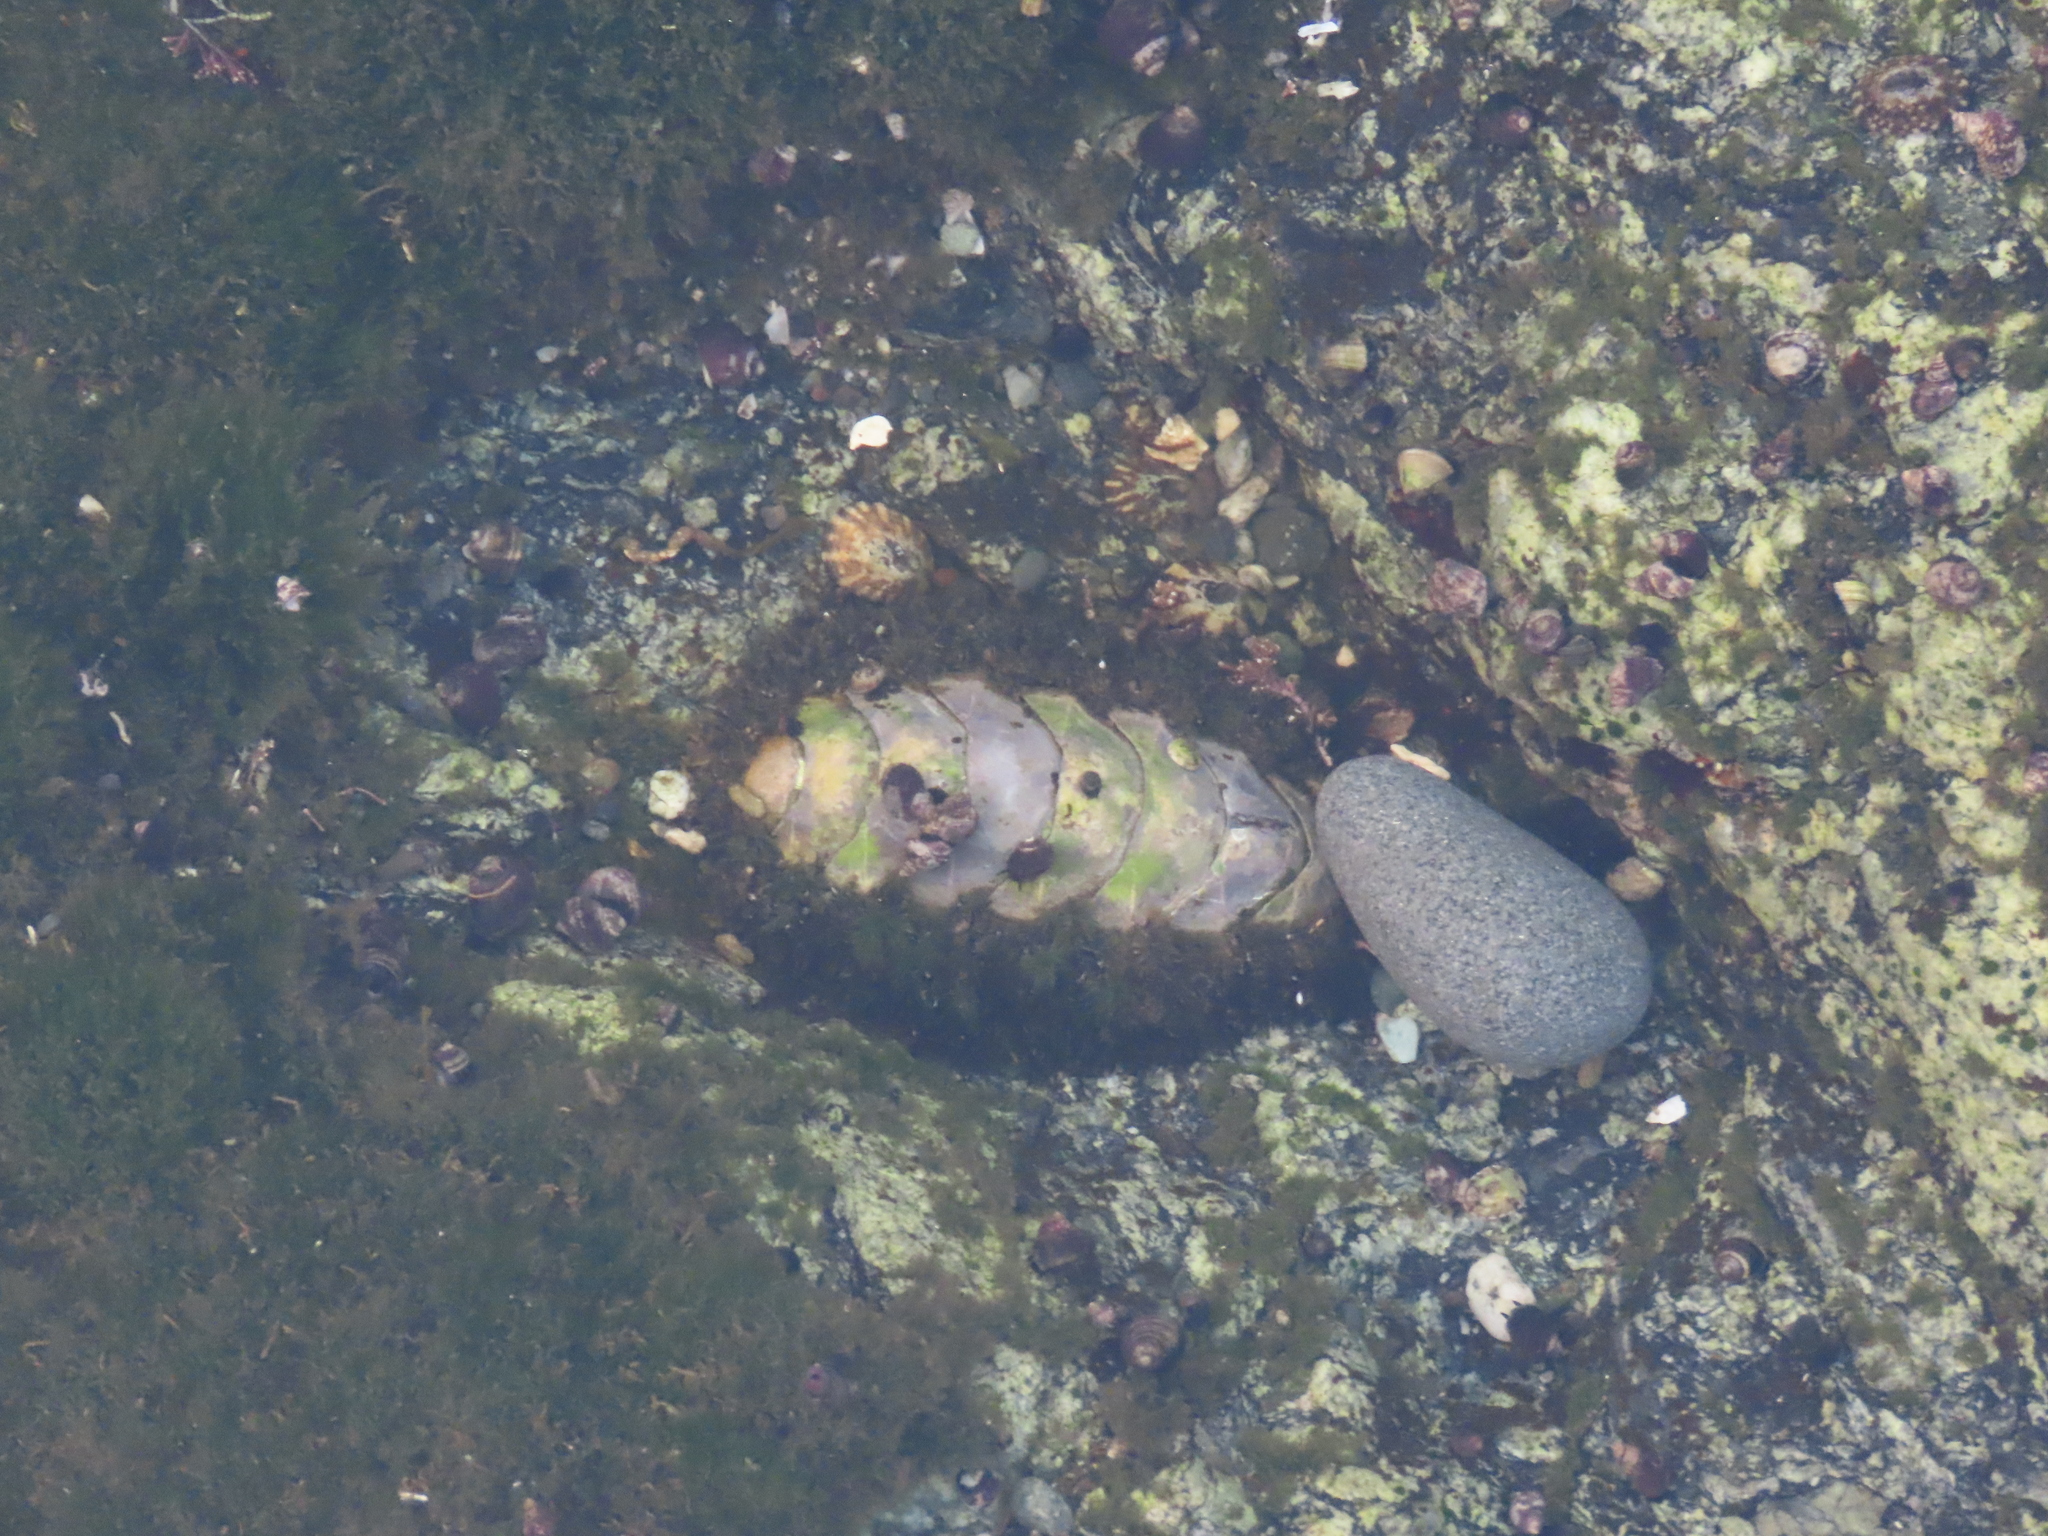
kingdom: Animalia
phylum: Mollusca
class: Polyplacophora
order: Chitonida
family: Mopaliidae
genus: Mopalia
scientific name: Mopalia muscosa
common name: Mossy chiton
